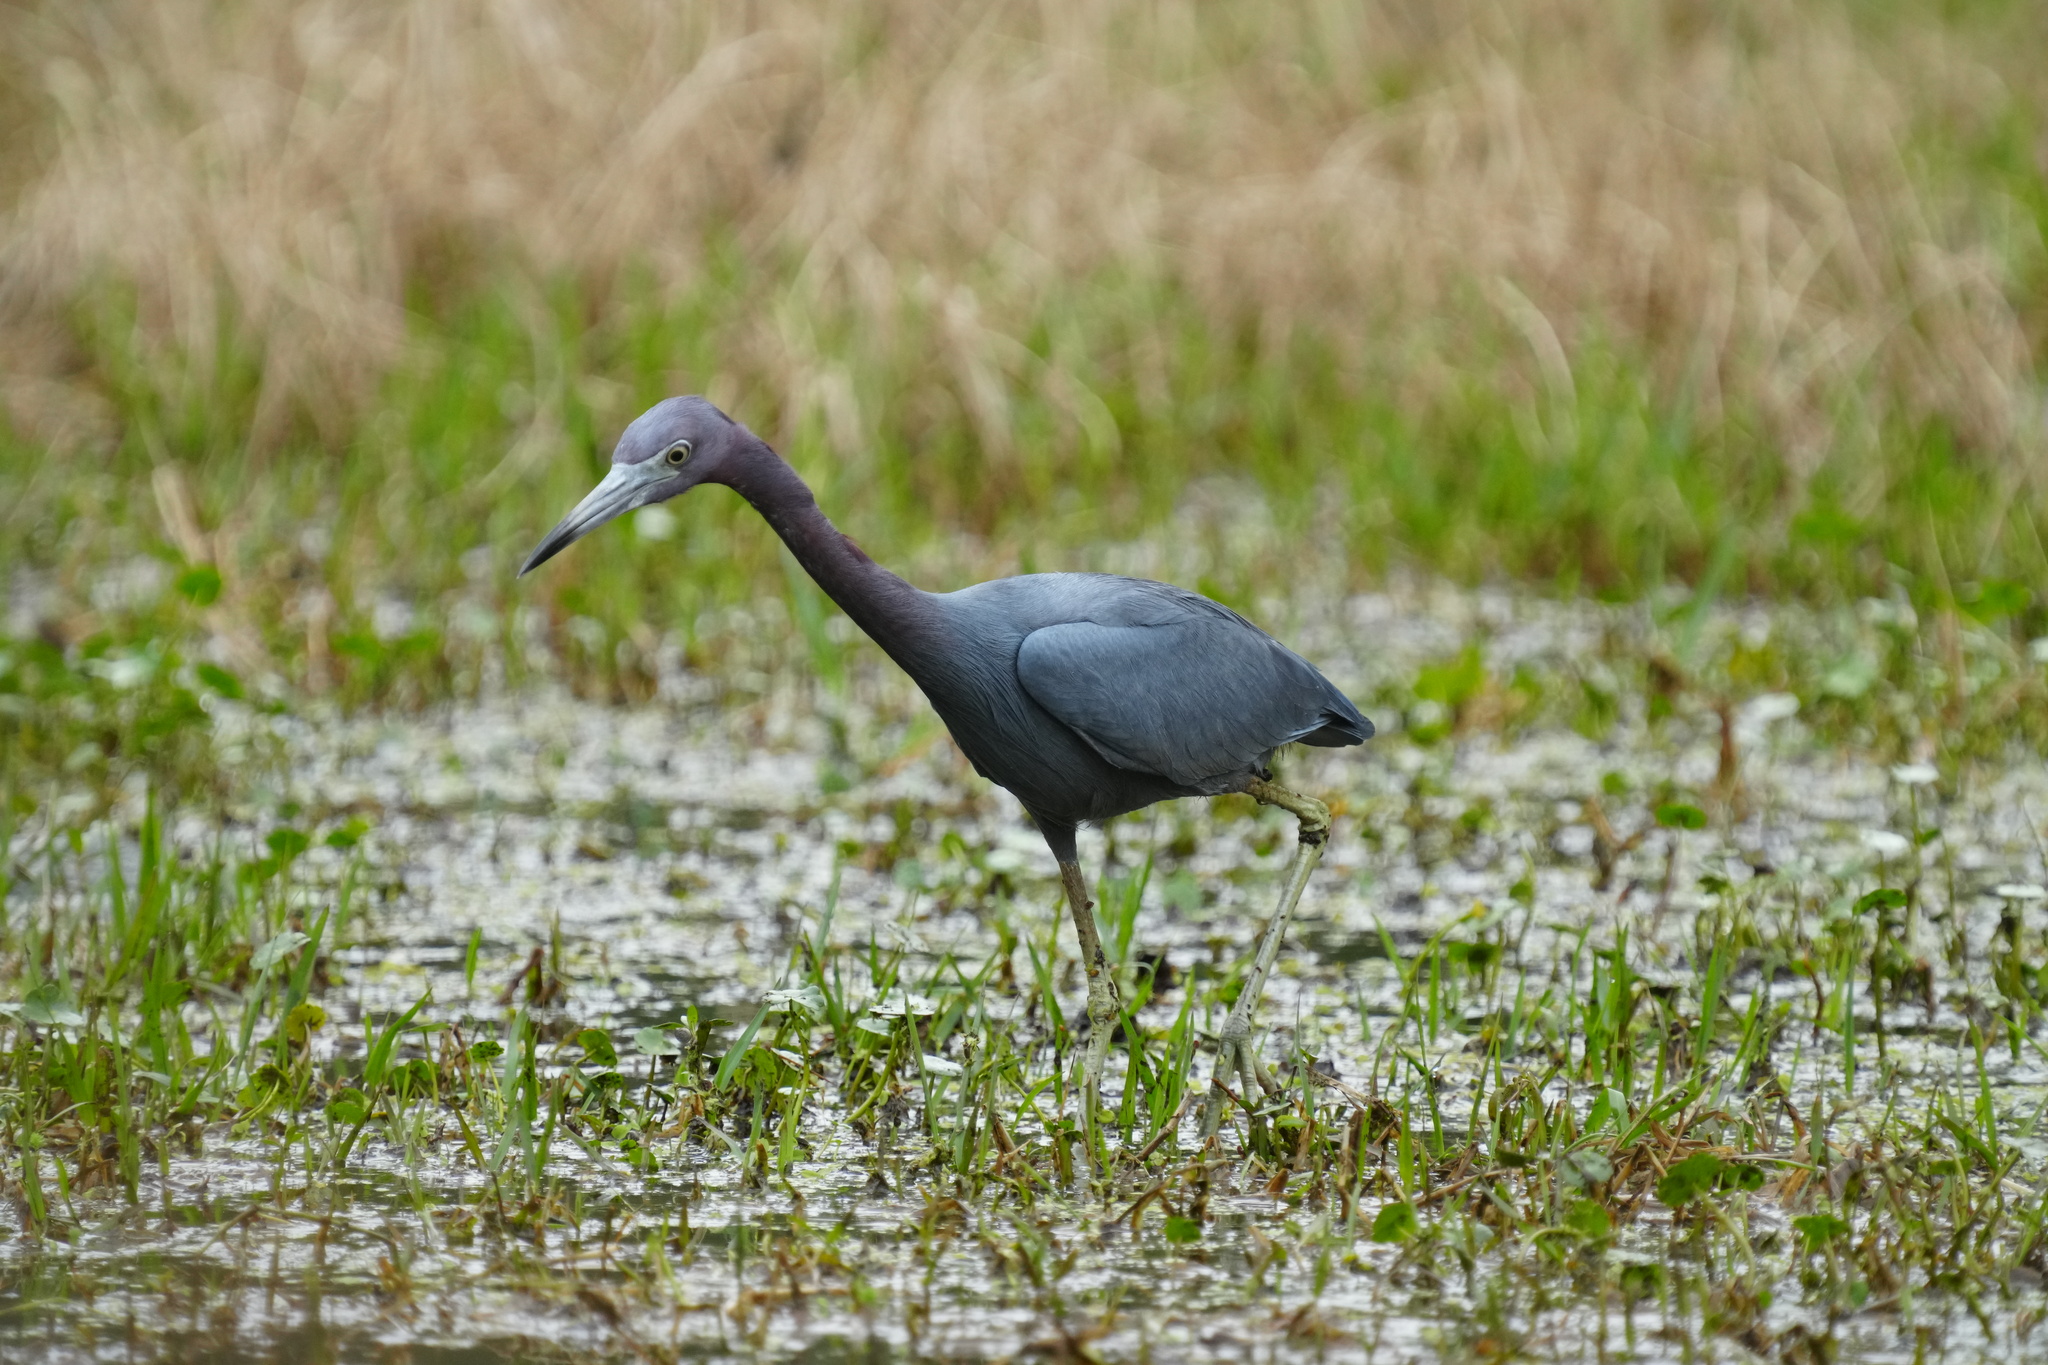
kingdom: Animalia
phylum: Chordata
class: Aves
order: Pelecaniformes
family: Ardeidae
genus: Egretta
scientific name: Egretta caerulea
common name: Little blue heron
